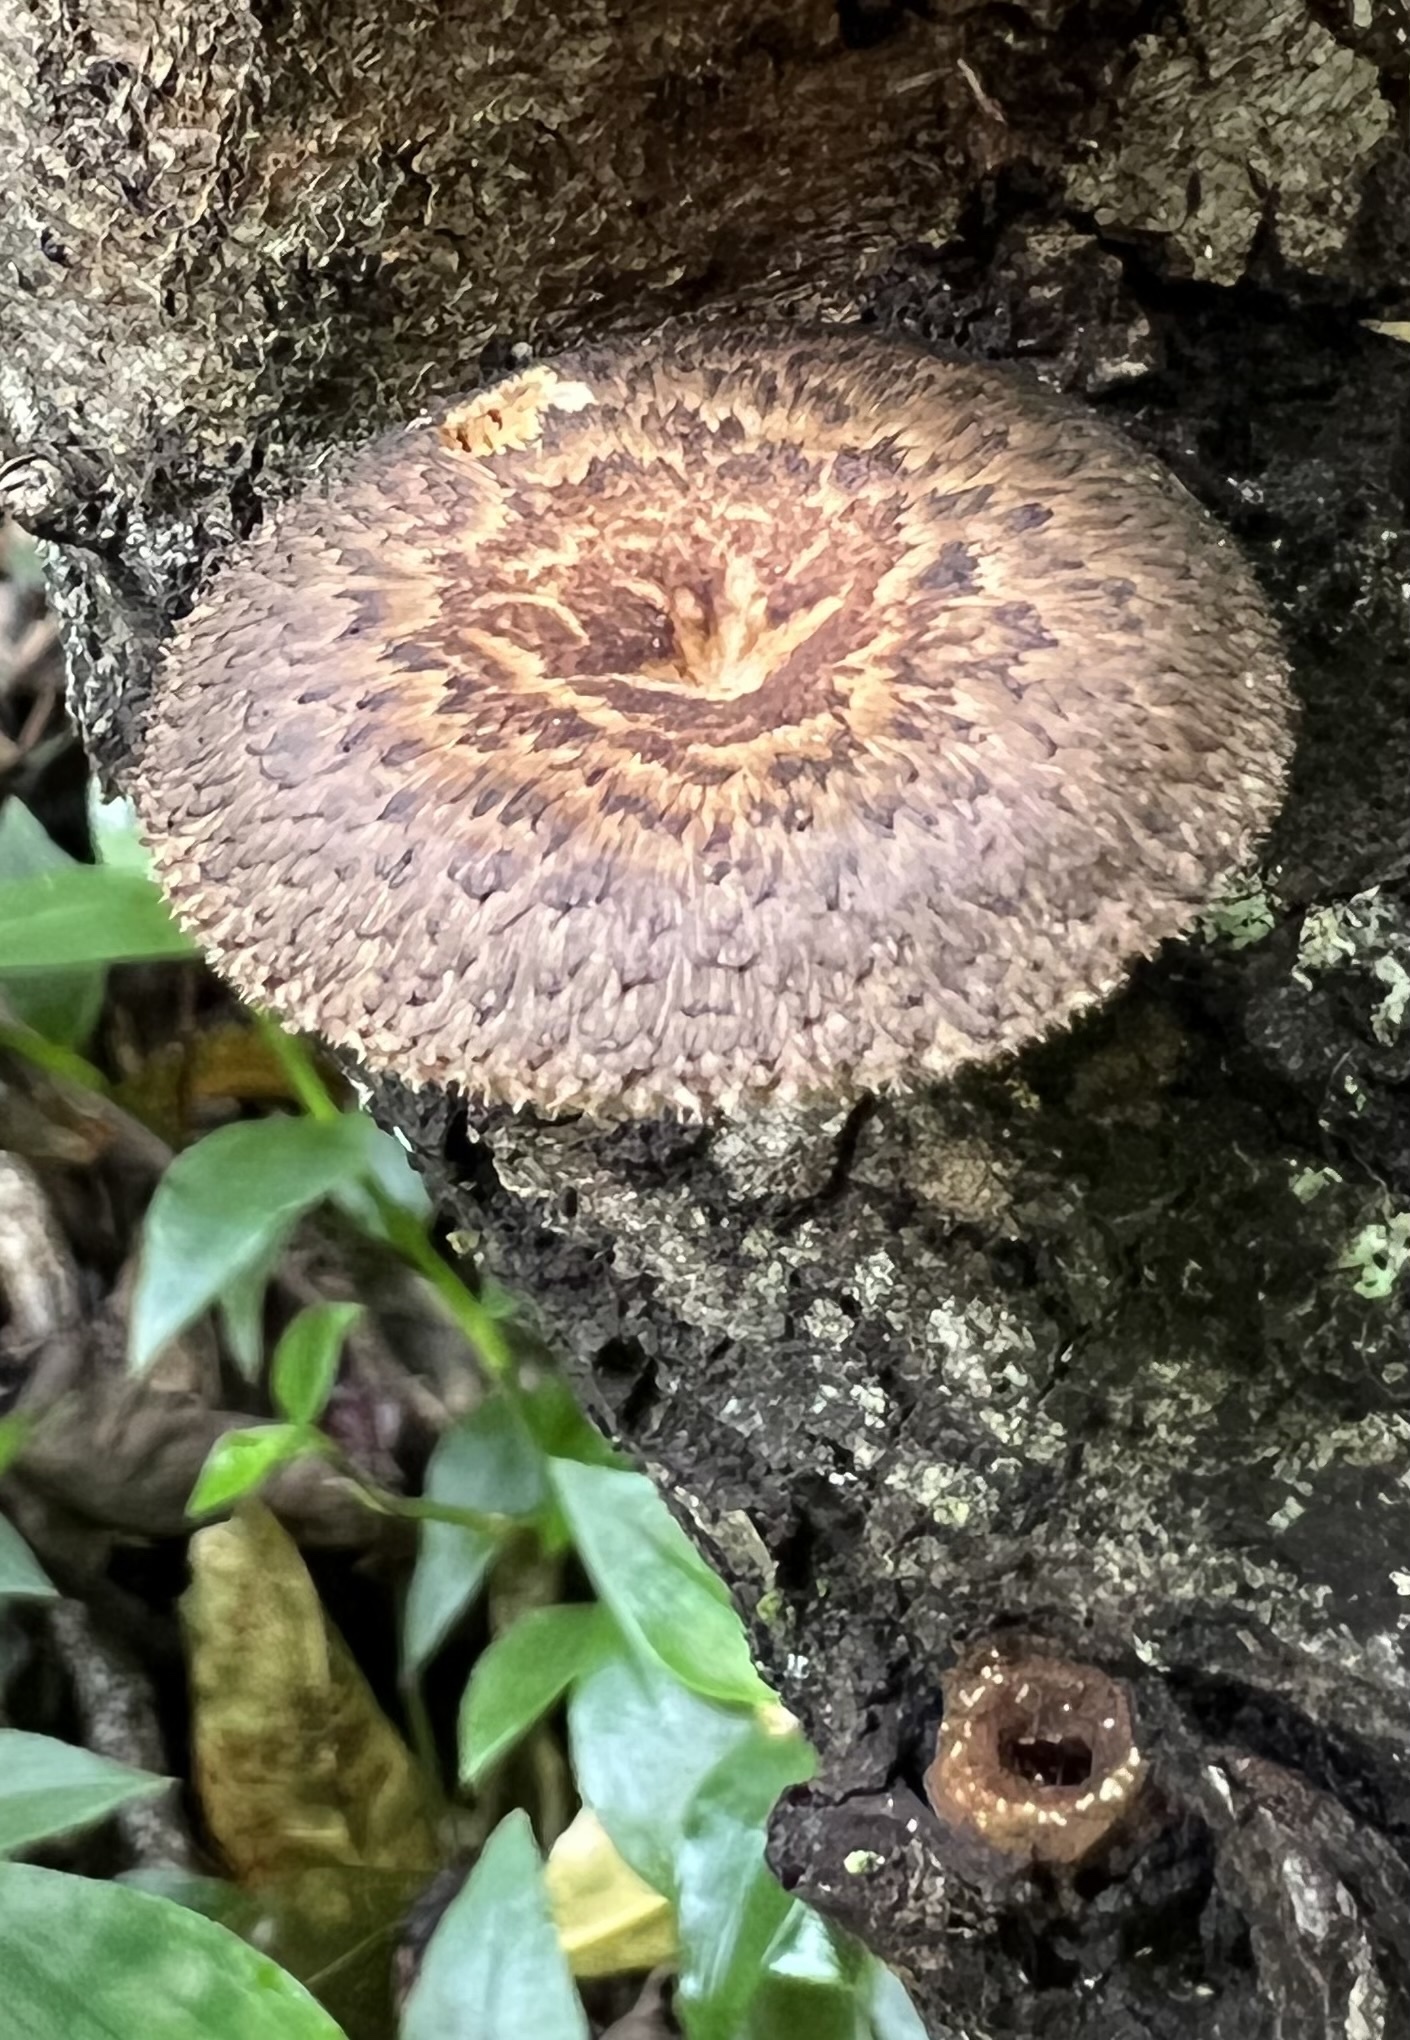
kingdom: Fungi
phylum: Basidiomycota
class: Agaricomycetes
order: Polyporales
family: Polyporaceae
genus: Lentinus
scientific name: Lentinus arcularius
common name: Spring polypore
